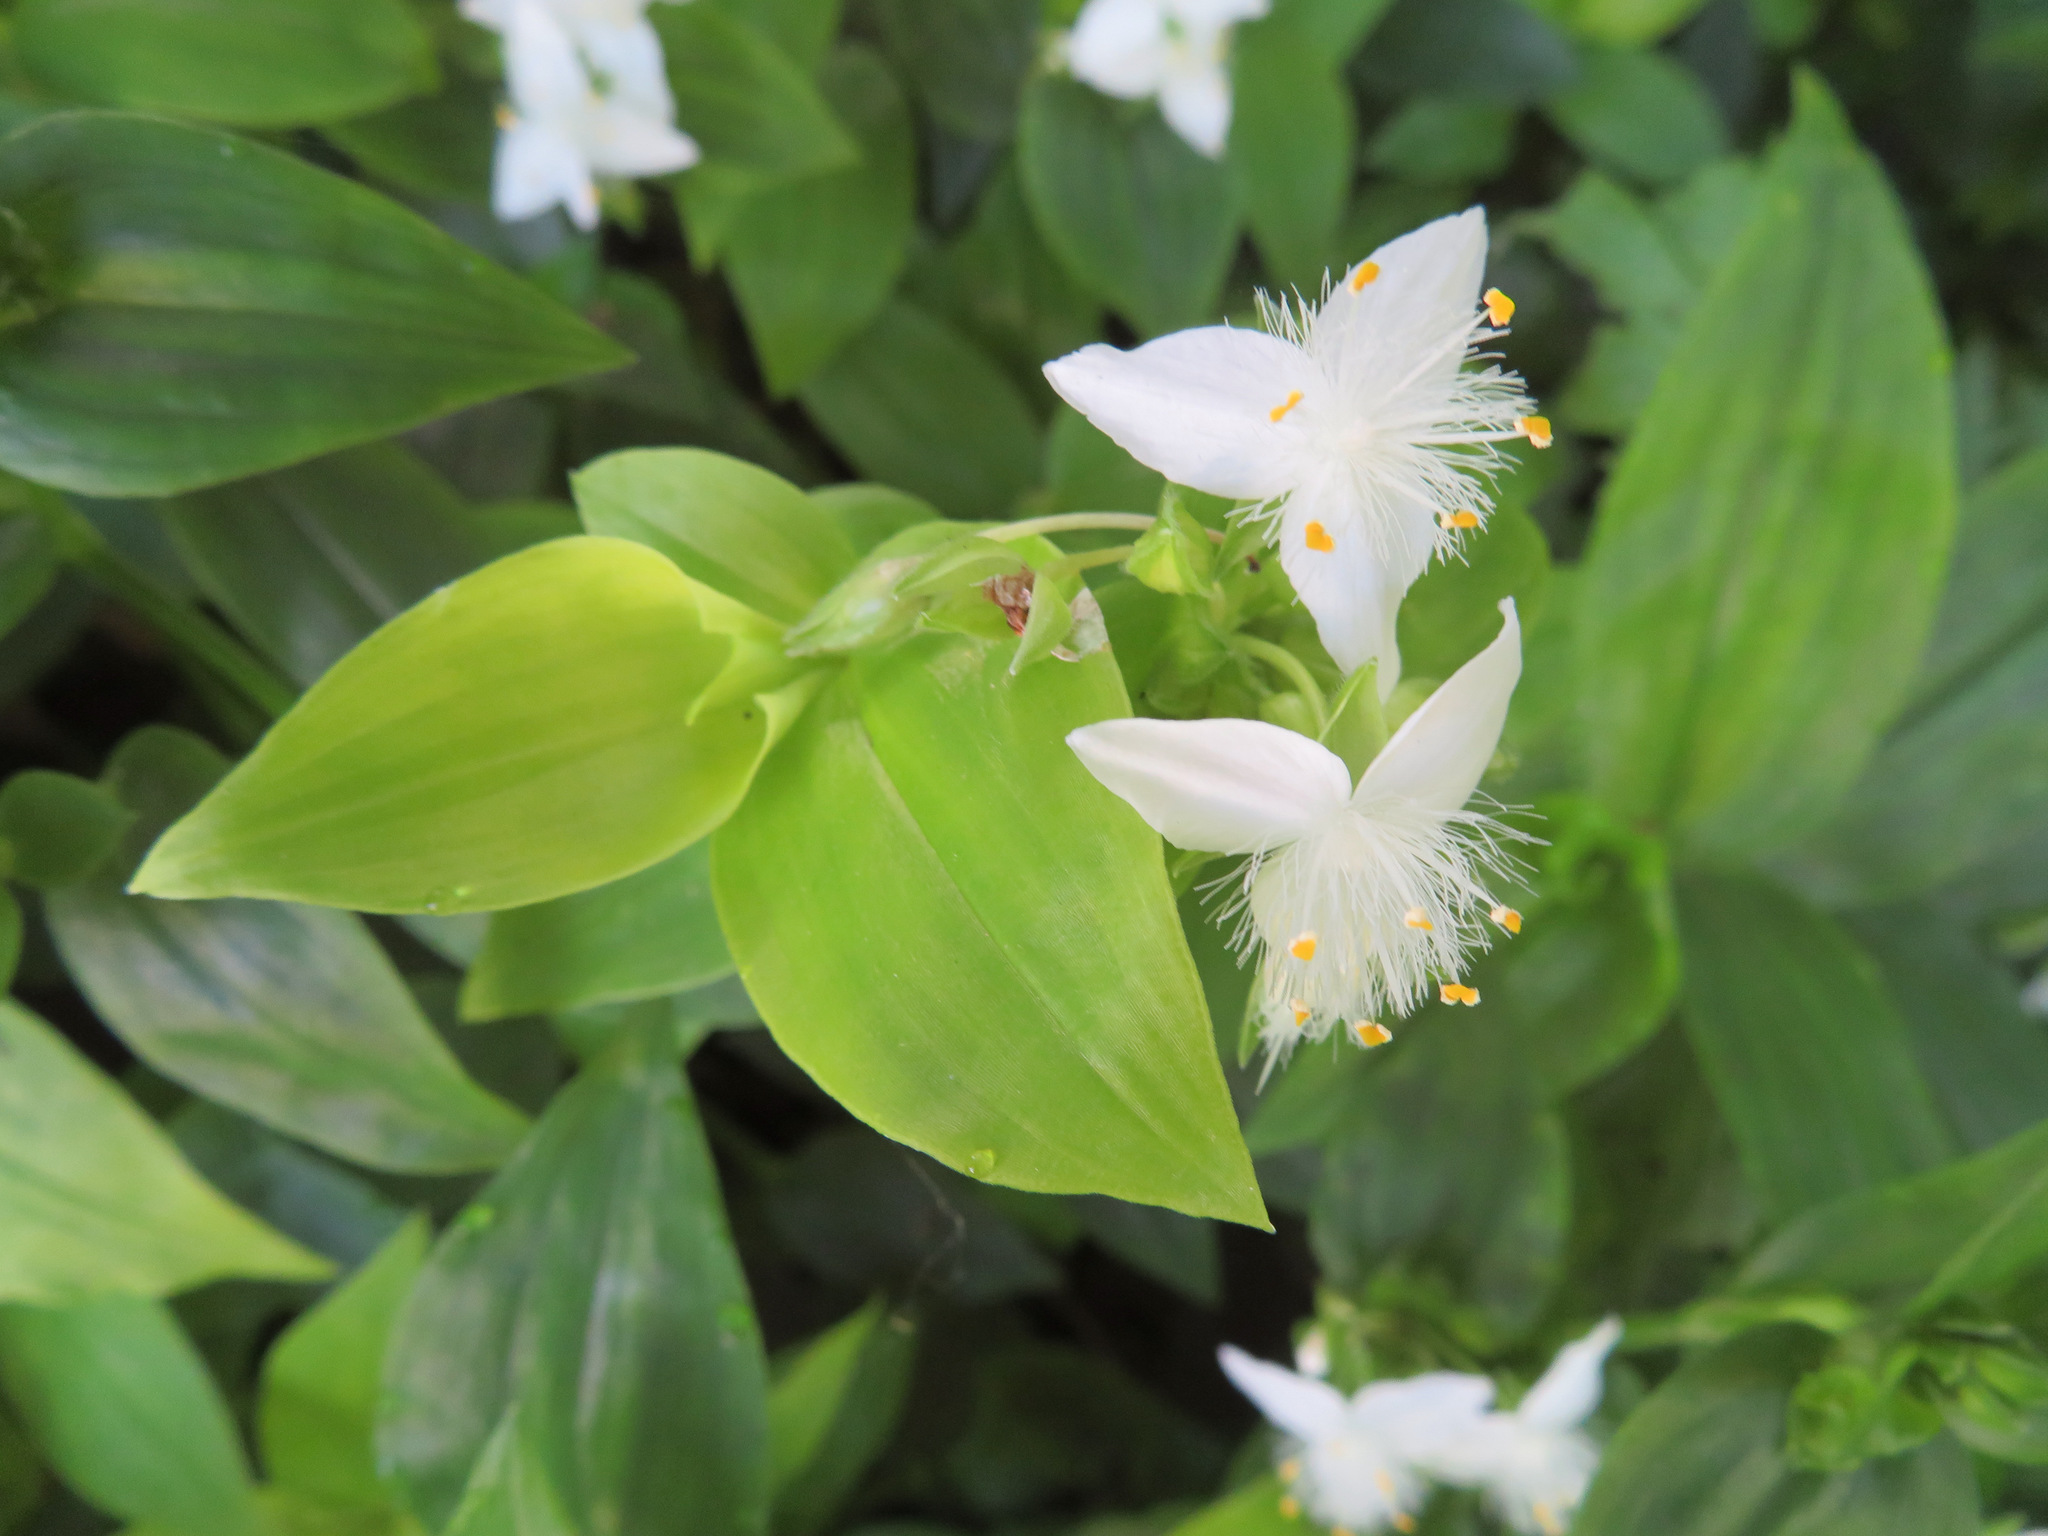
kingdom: Plantae
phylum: Tracheophyta
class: Liliopsida
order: Commelinales
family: Commelinaceae
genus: Tradescantia
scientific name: Tradescantia fluminensis
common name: Wandering-jew
